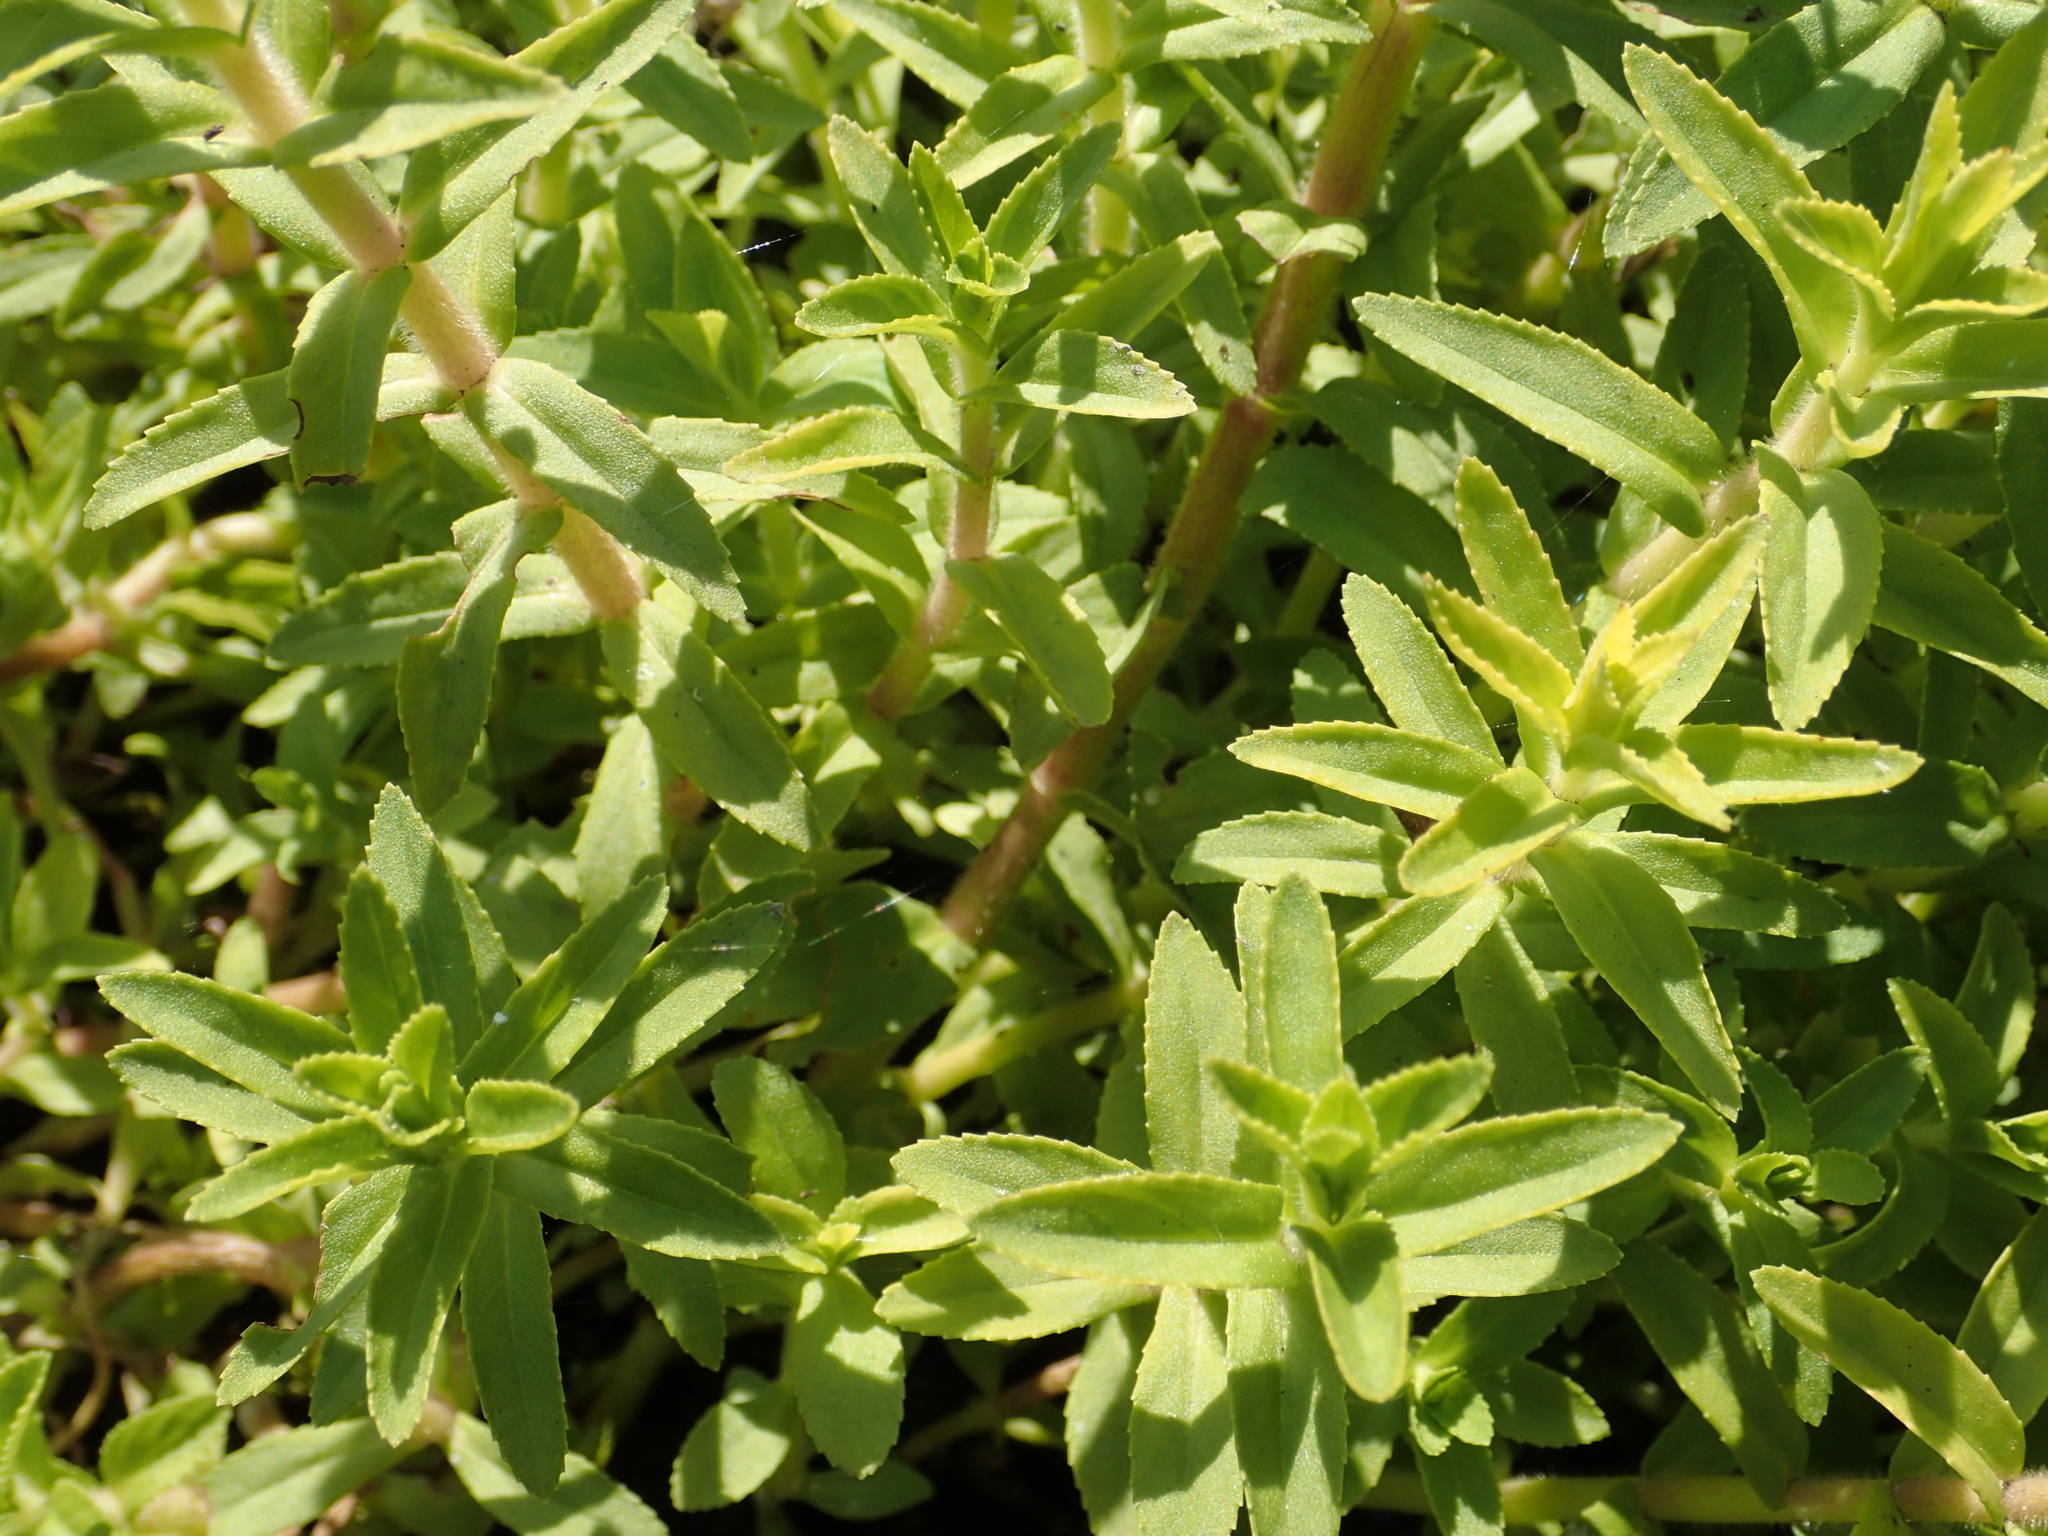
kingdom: Plantae
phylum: Tracheophyta
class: Magnoliopsida
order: Lamiales
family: Plantaginaceae
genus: Limnophila
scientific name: Limnophila aromatica
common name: Finger grass
